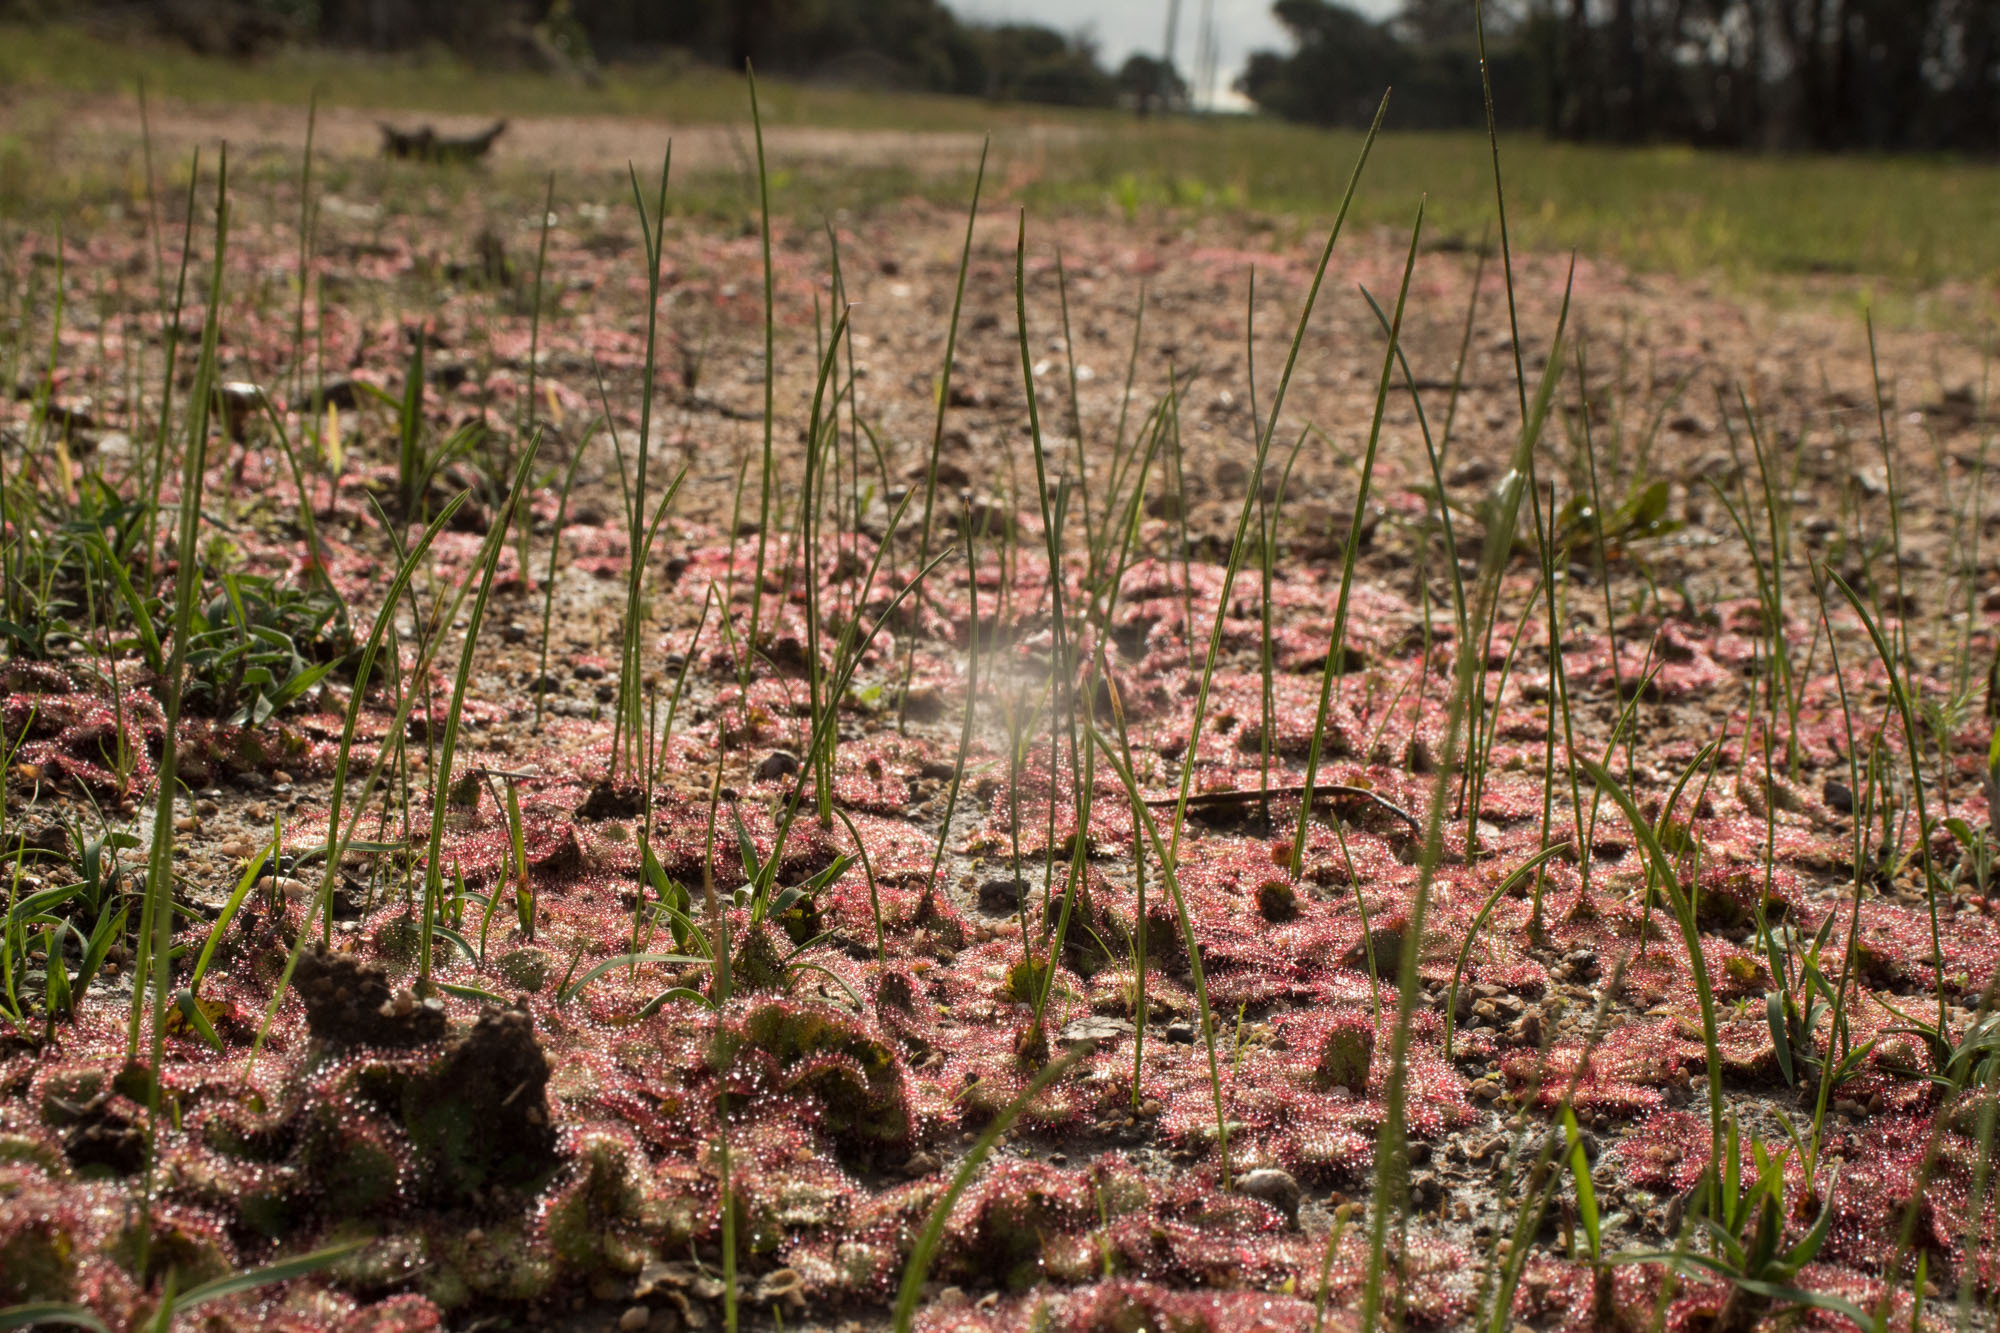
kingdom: Plantae
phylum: Tracheophyta
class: Magnoliopsida
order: Caryophyllales
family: Droseraceae
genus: Drosera
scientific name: Drosera tubaestylis
